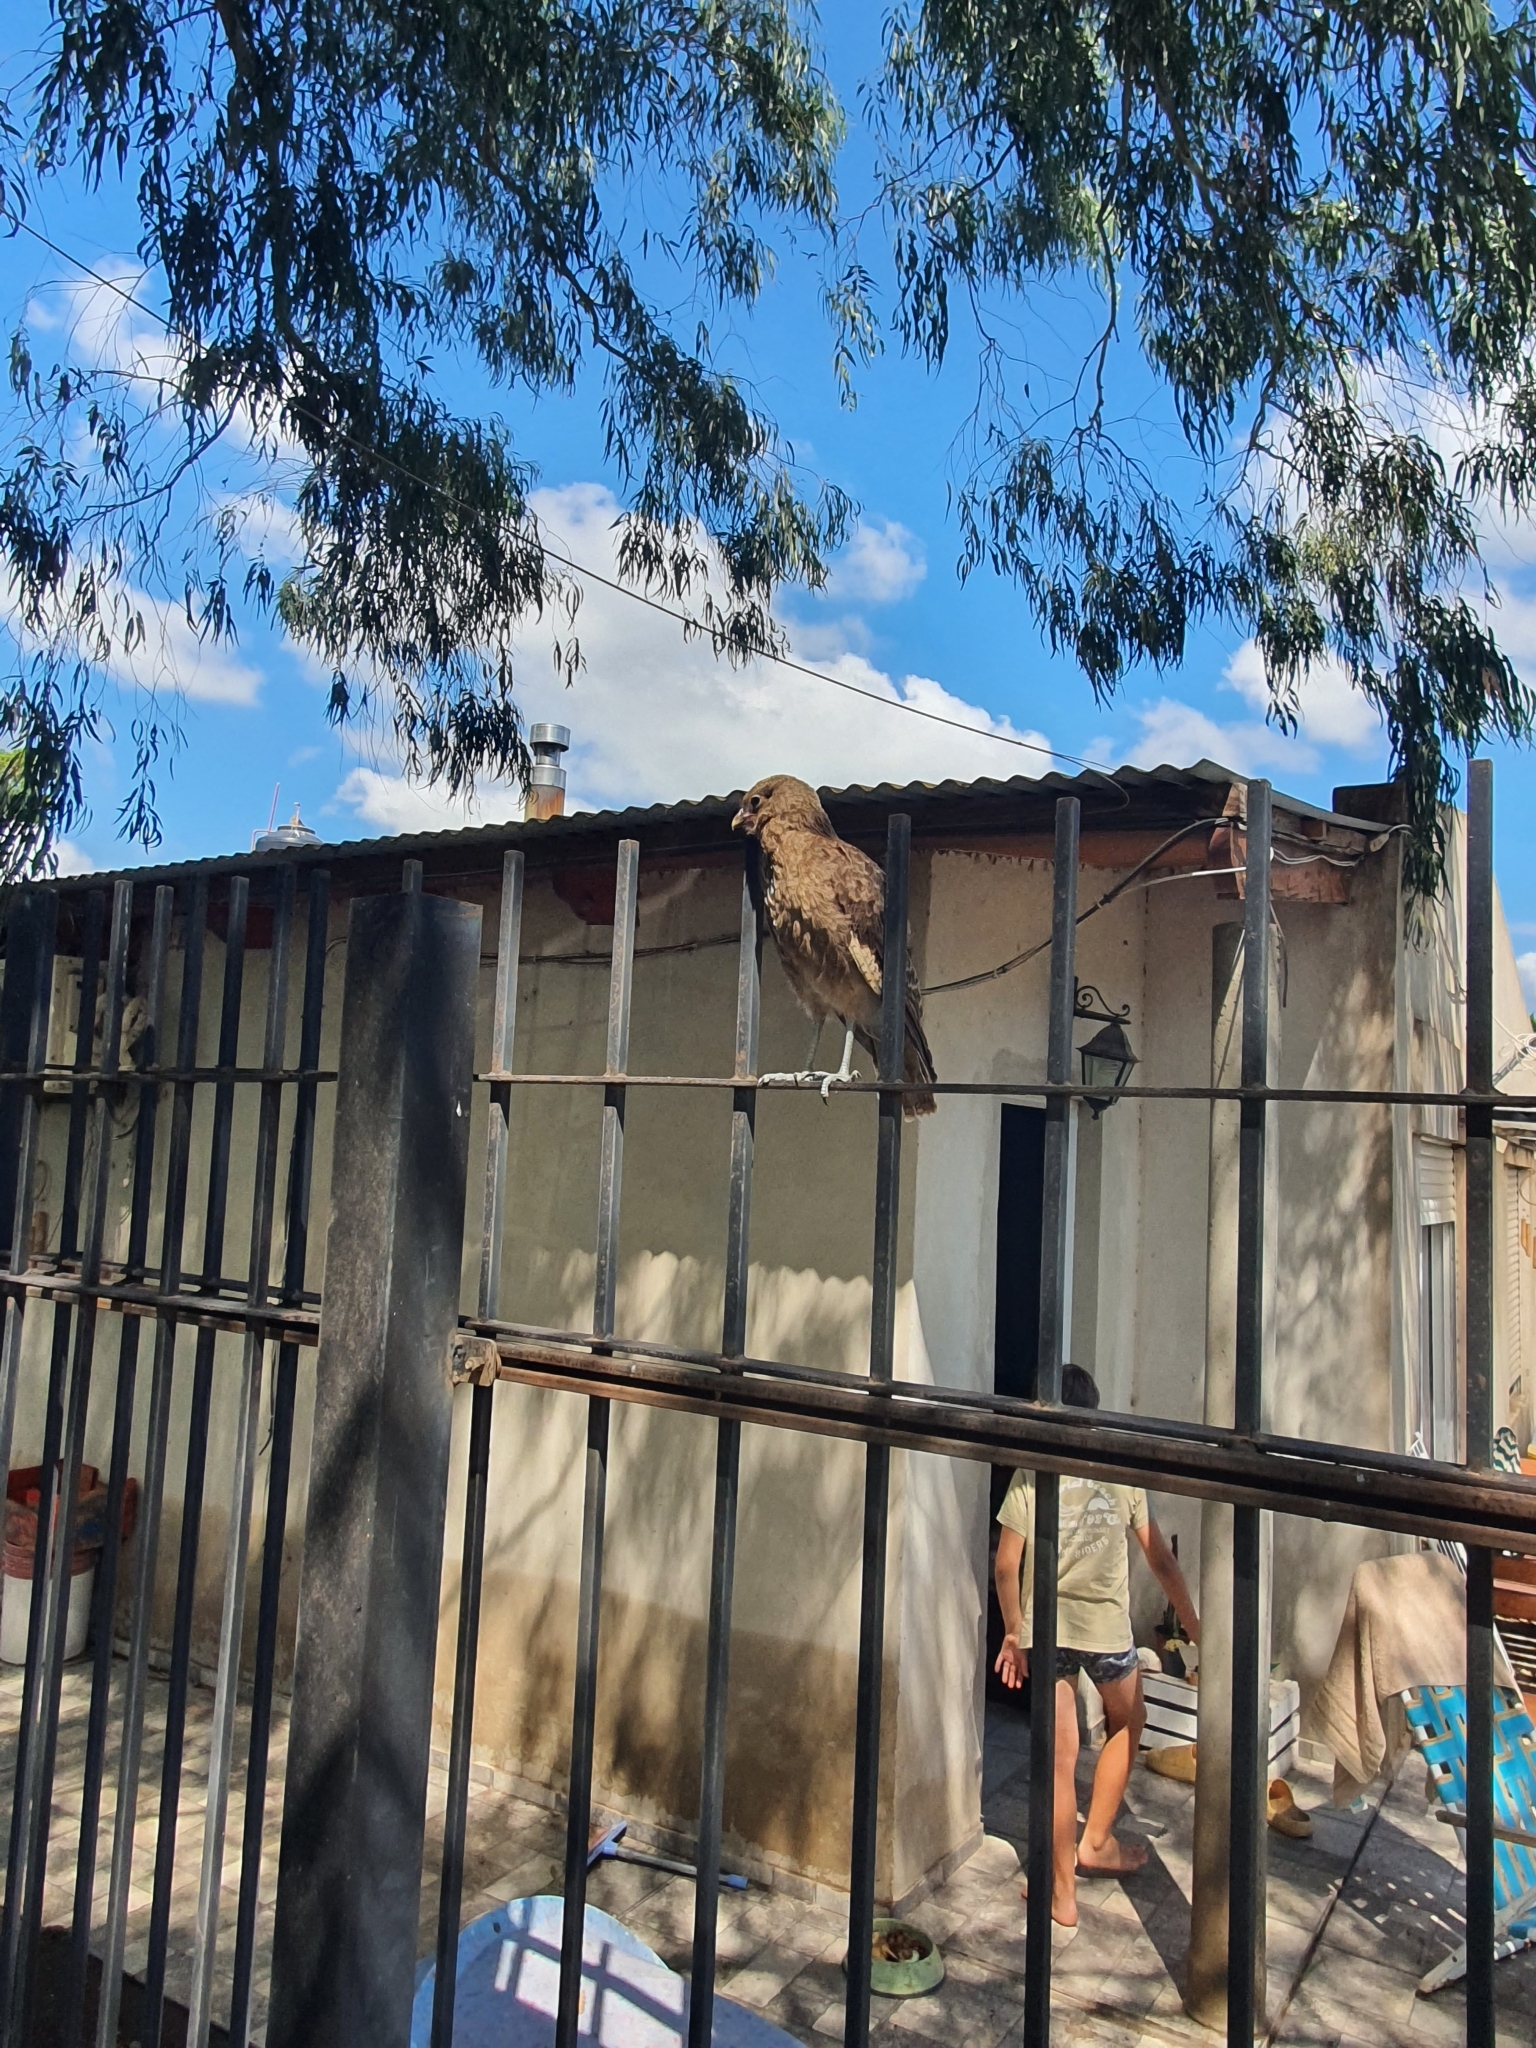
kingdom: Animalia
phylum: Chordata
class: Aves
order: Falconiformes
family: Falconidae
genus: Daptrius
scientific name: Daptrius
